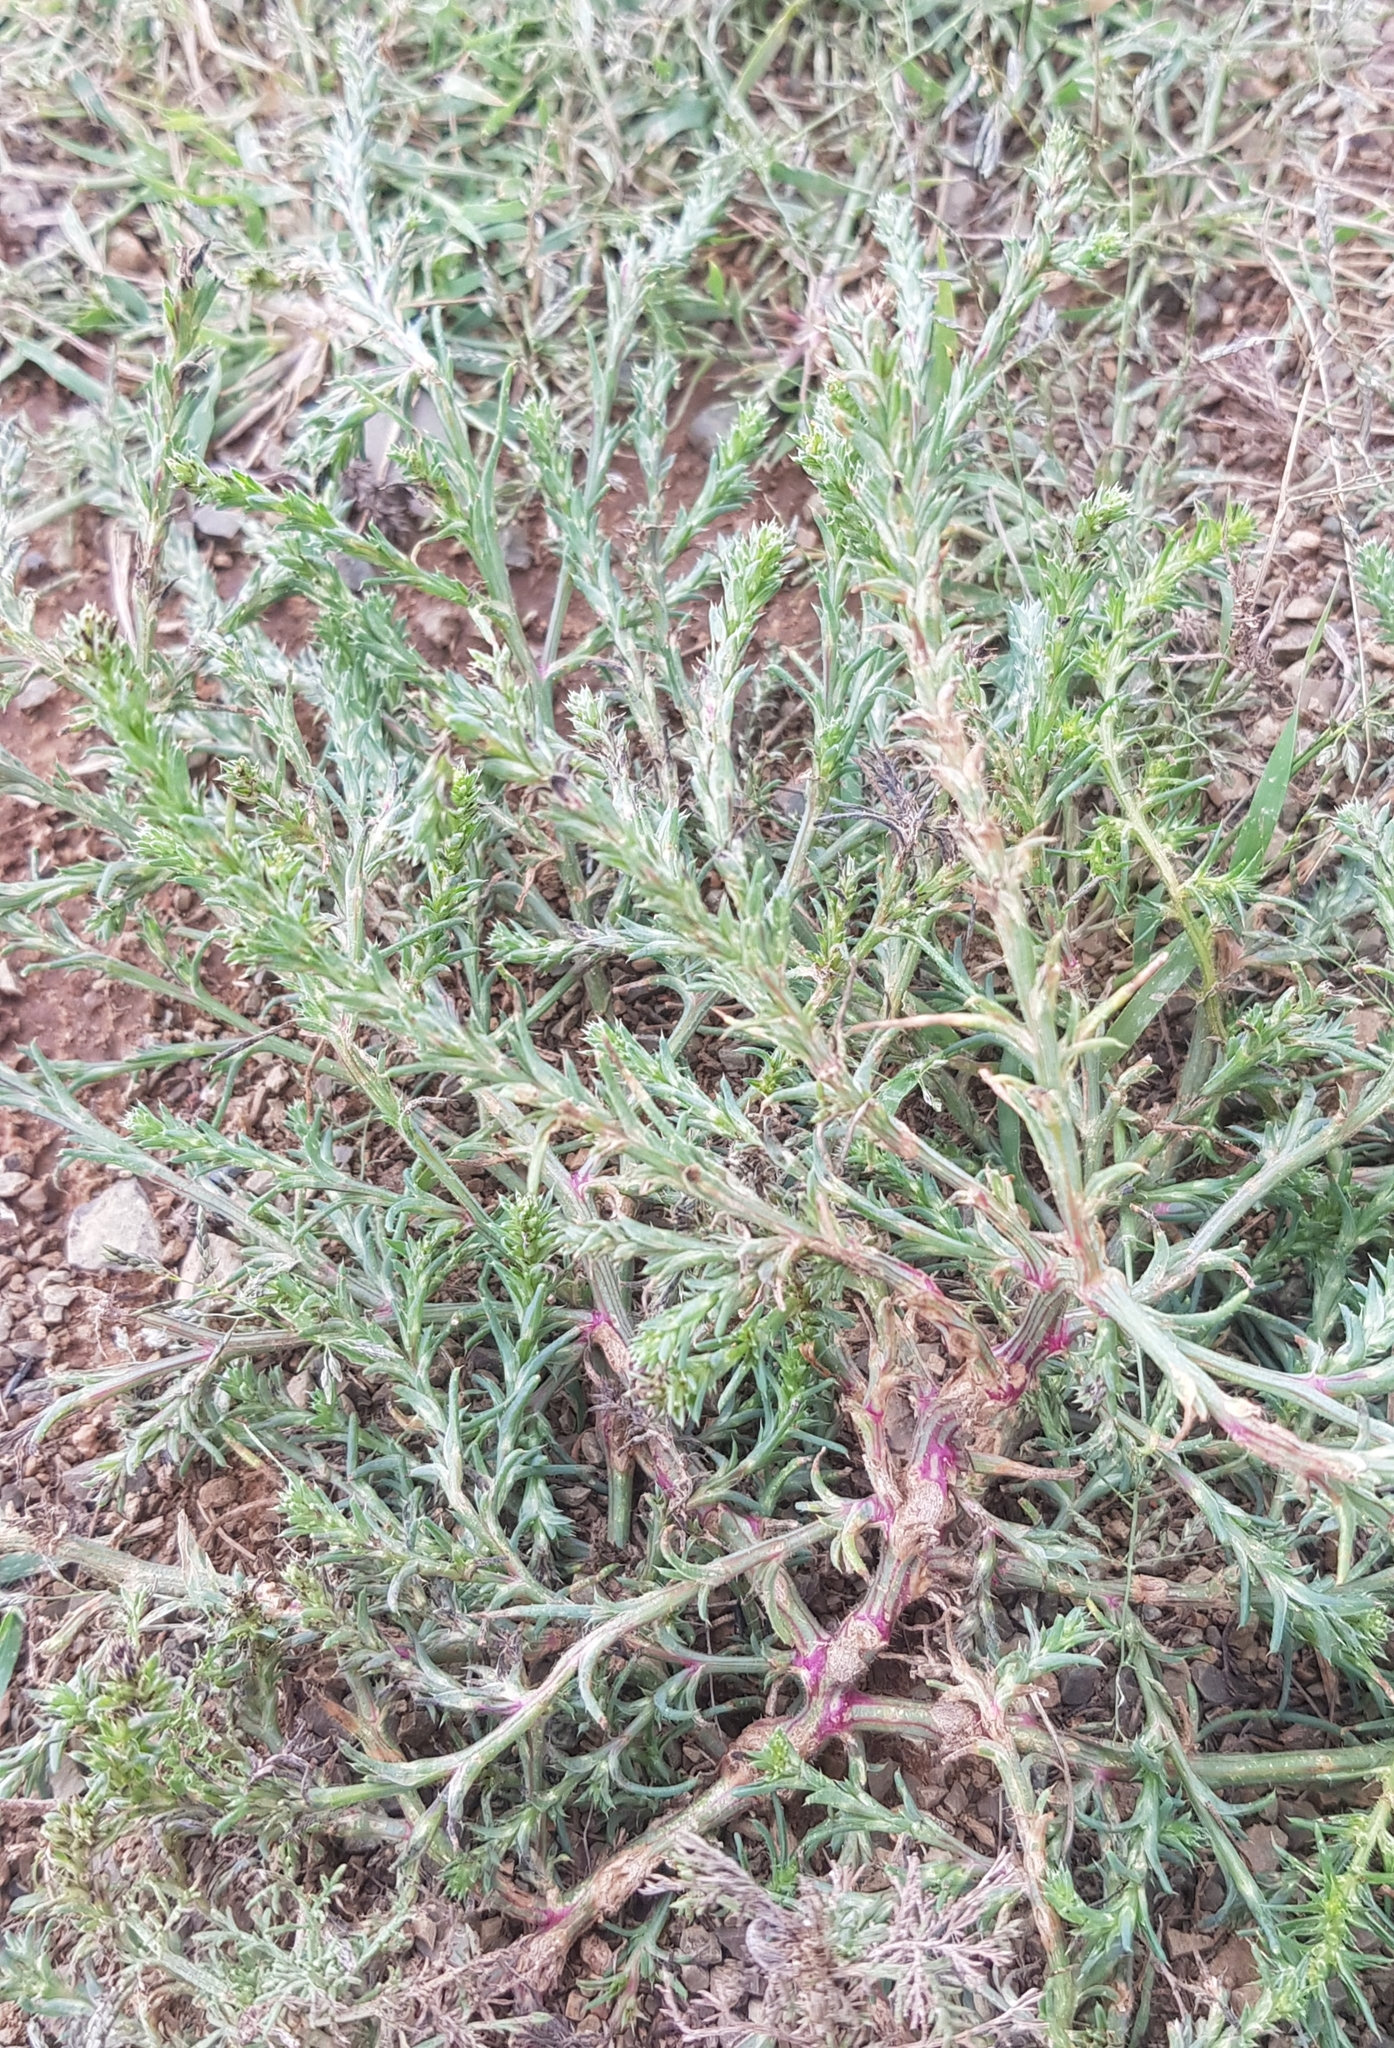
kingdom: Plantae
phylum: Tracheophyta
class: Magnoliopsida
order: Caryophyllales
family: Amaranthaceae
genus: Salsola
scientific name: Salsola collina
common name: Tumbleweed
